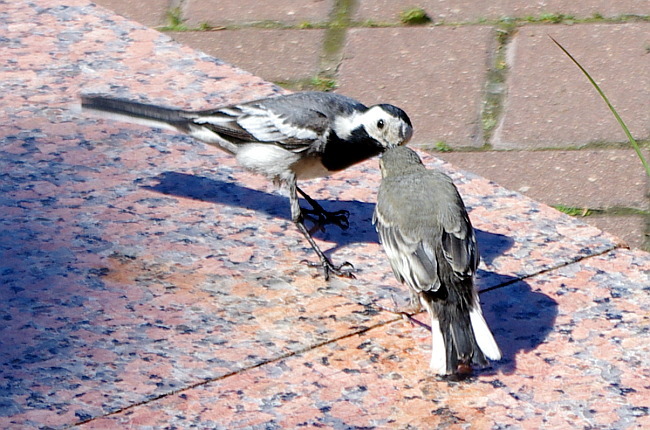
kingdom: Animalia
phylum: Chordata
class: Aves
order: Passeriformes
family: Motacillidae
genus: Motacilla
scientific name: Motacilla alba
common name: White wagtail
